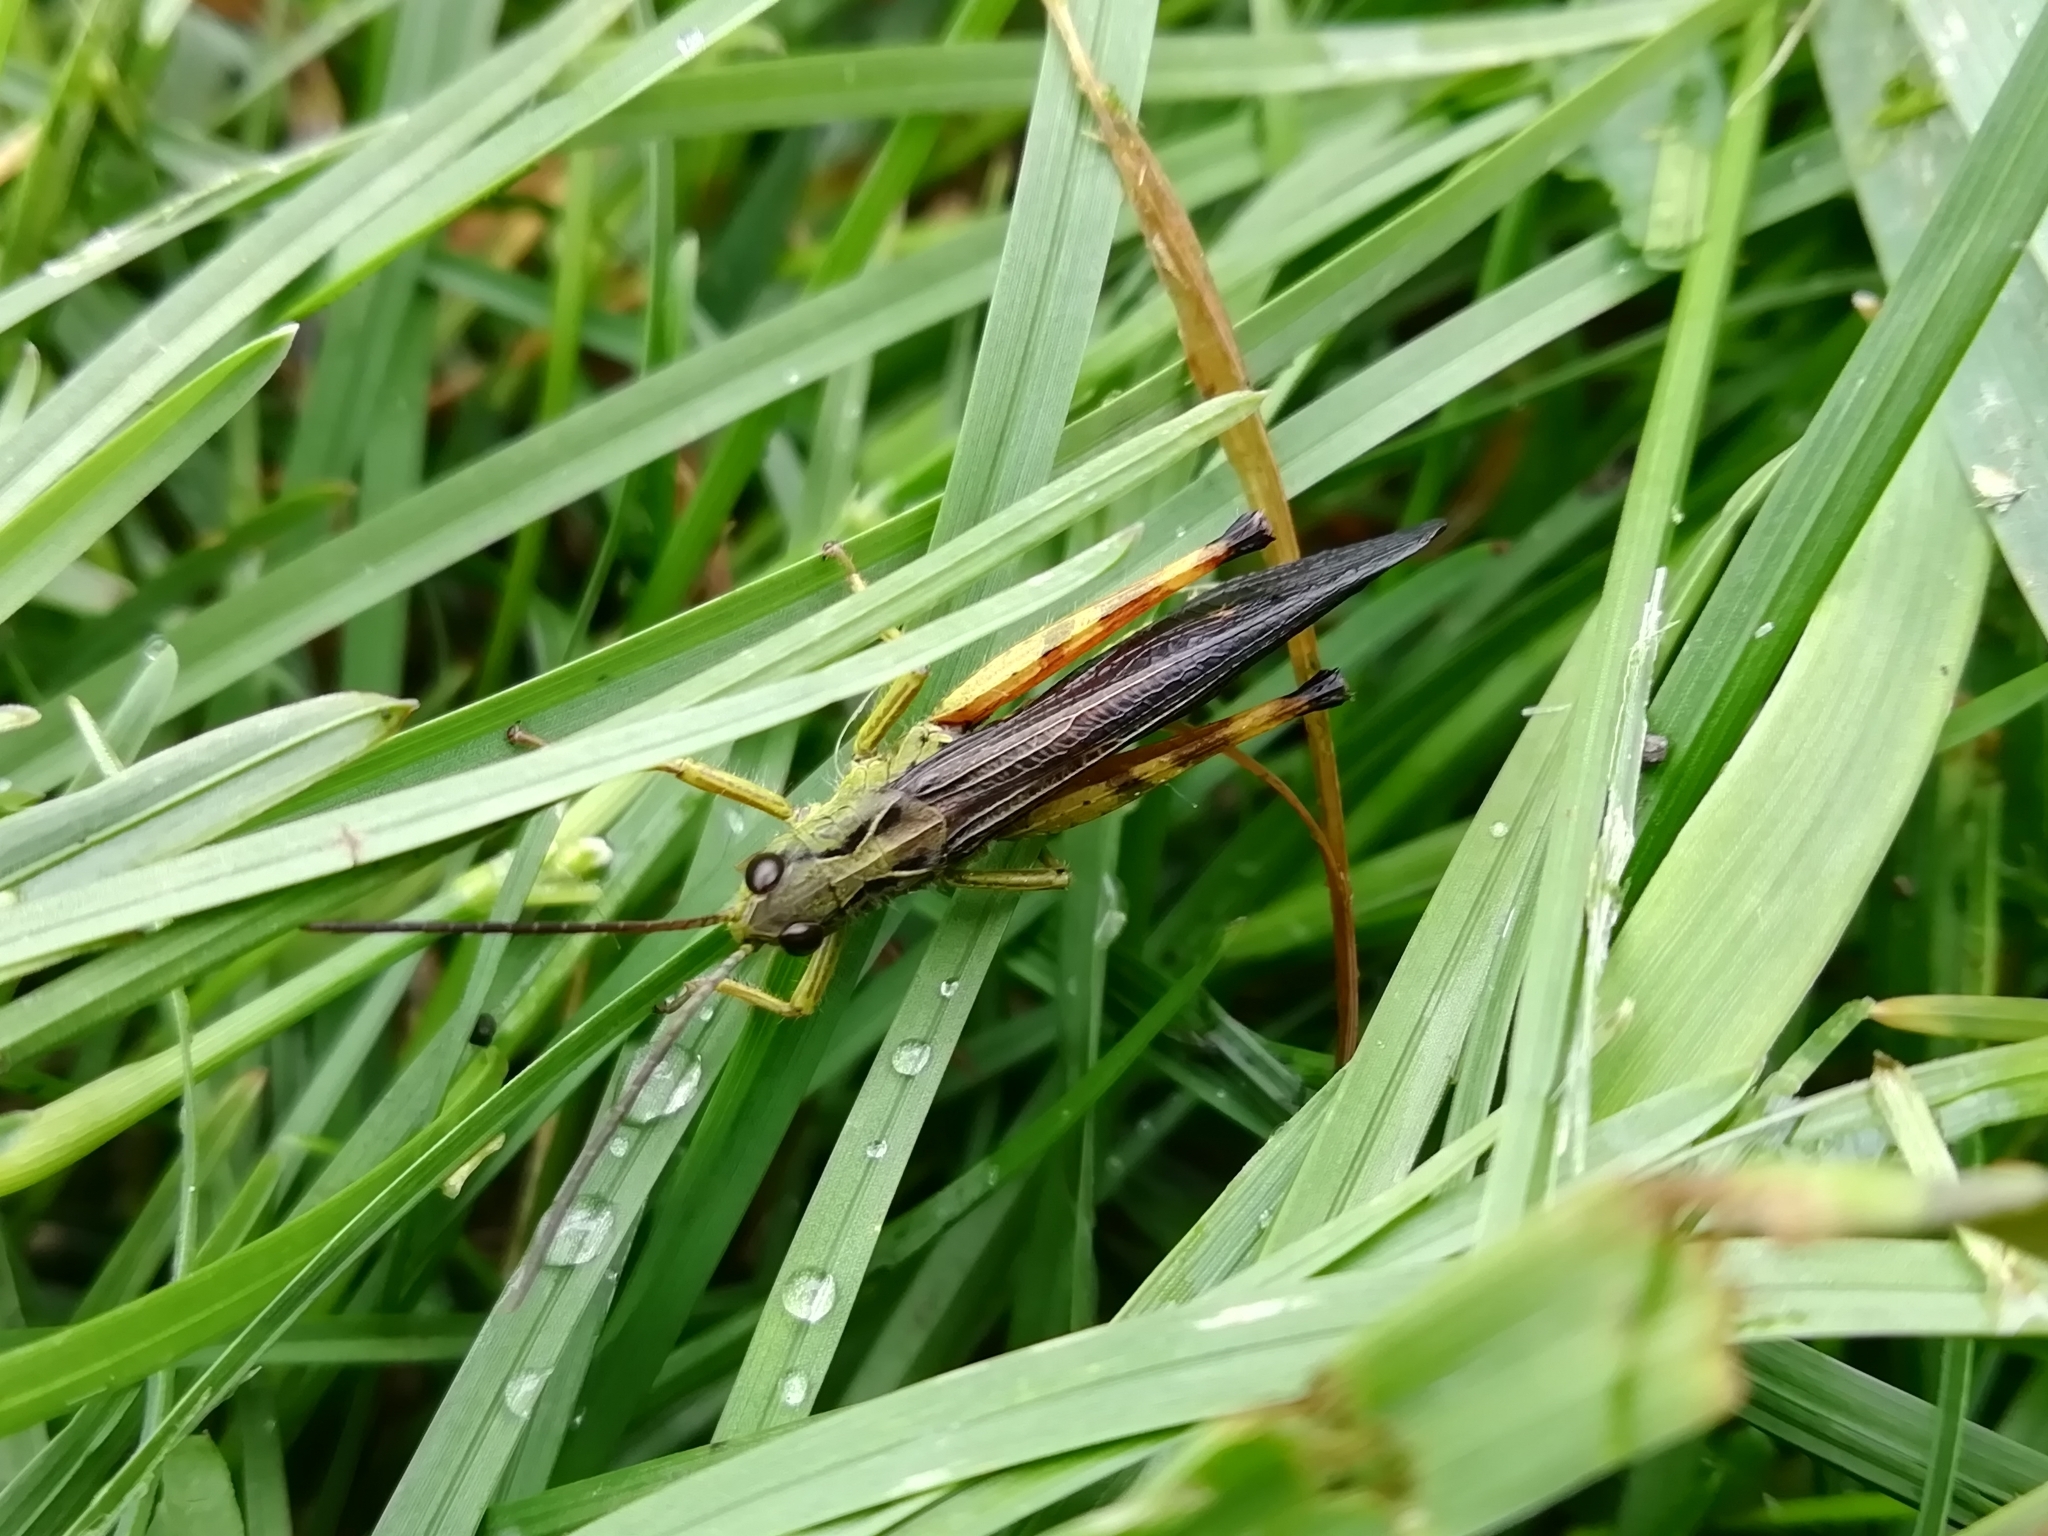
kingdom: Animalia
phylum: Arthropoda
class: Insecta
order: Orthoptera
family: Acrididae
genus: Megaulacobothrus
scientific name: Megaulacobothrus aethalinus
